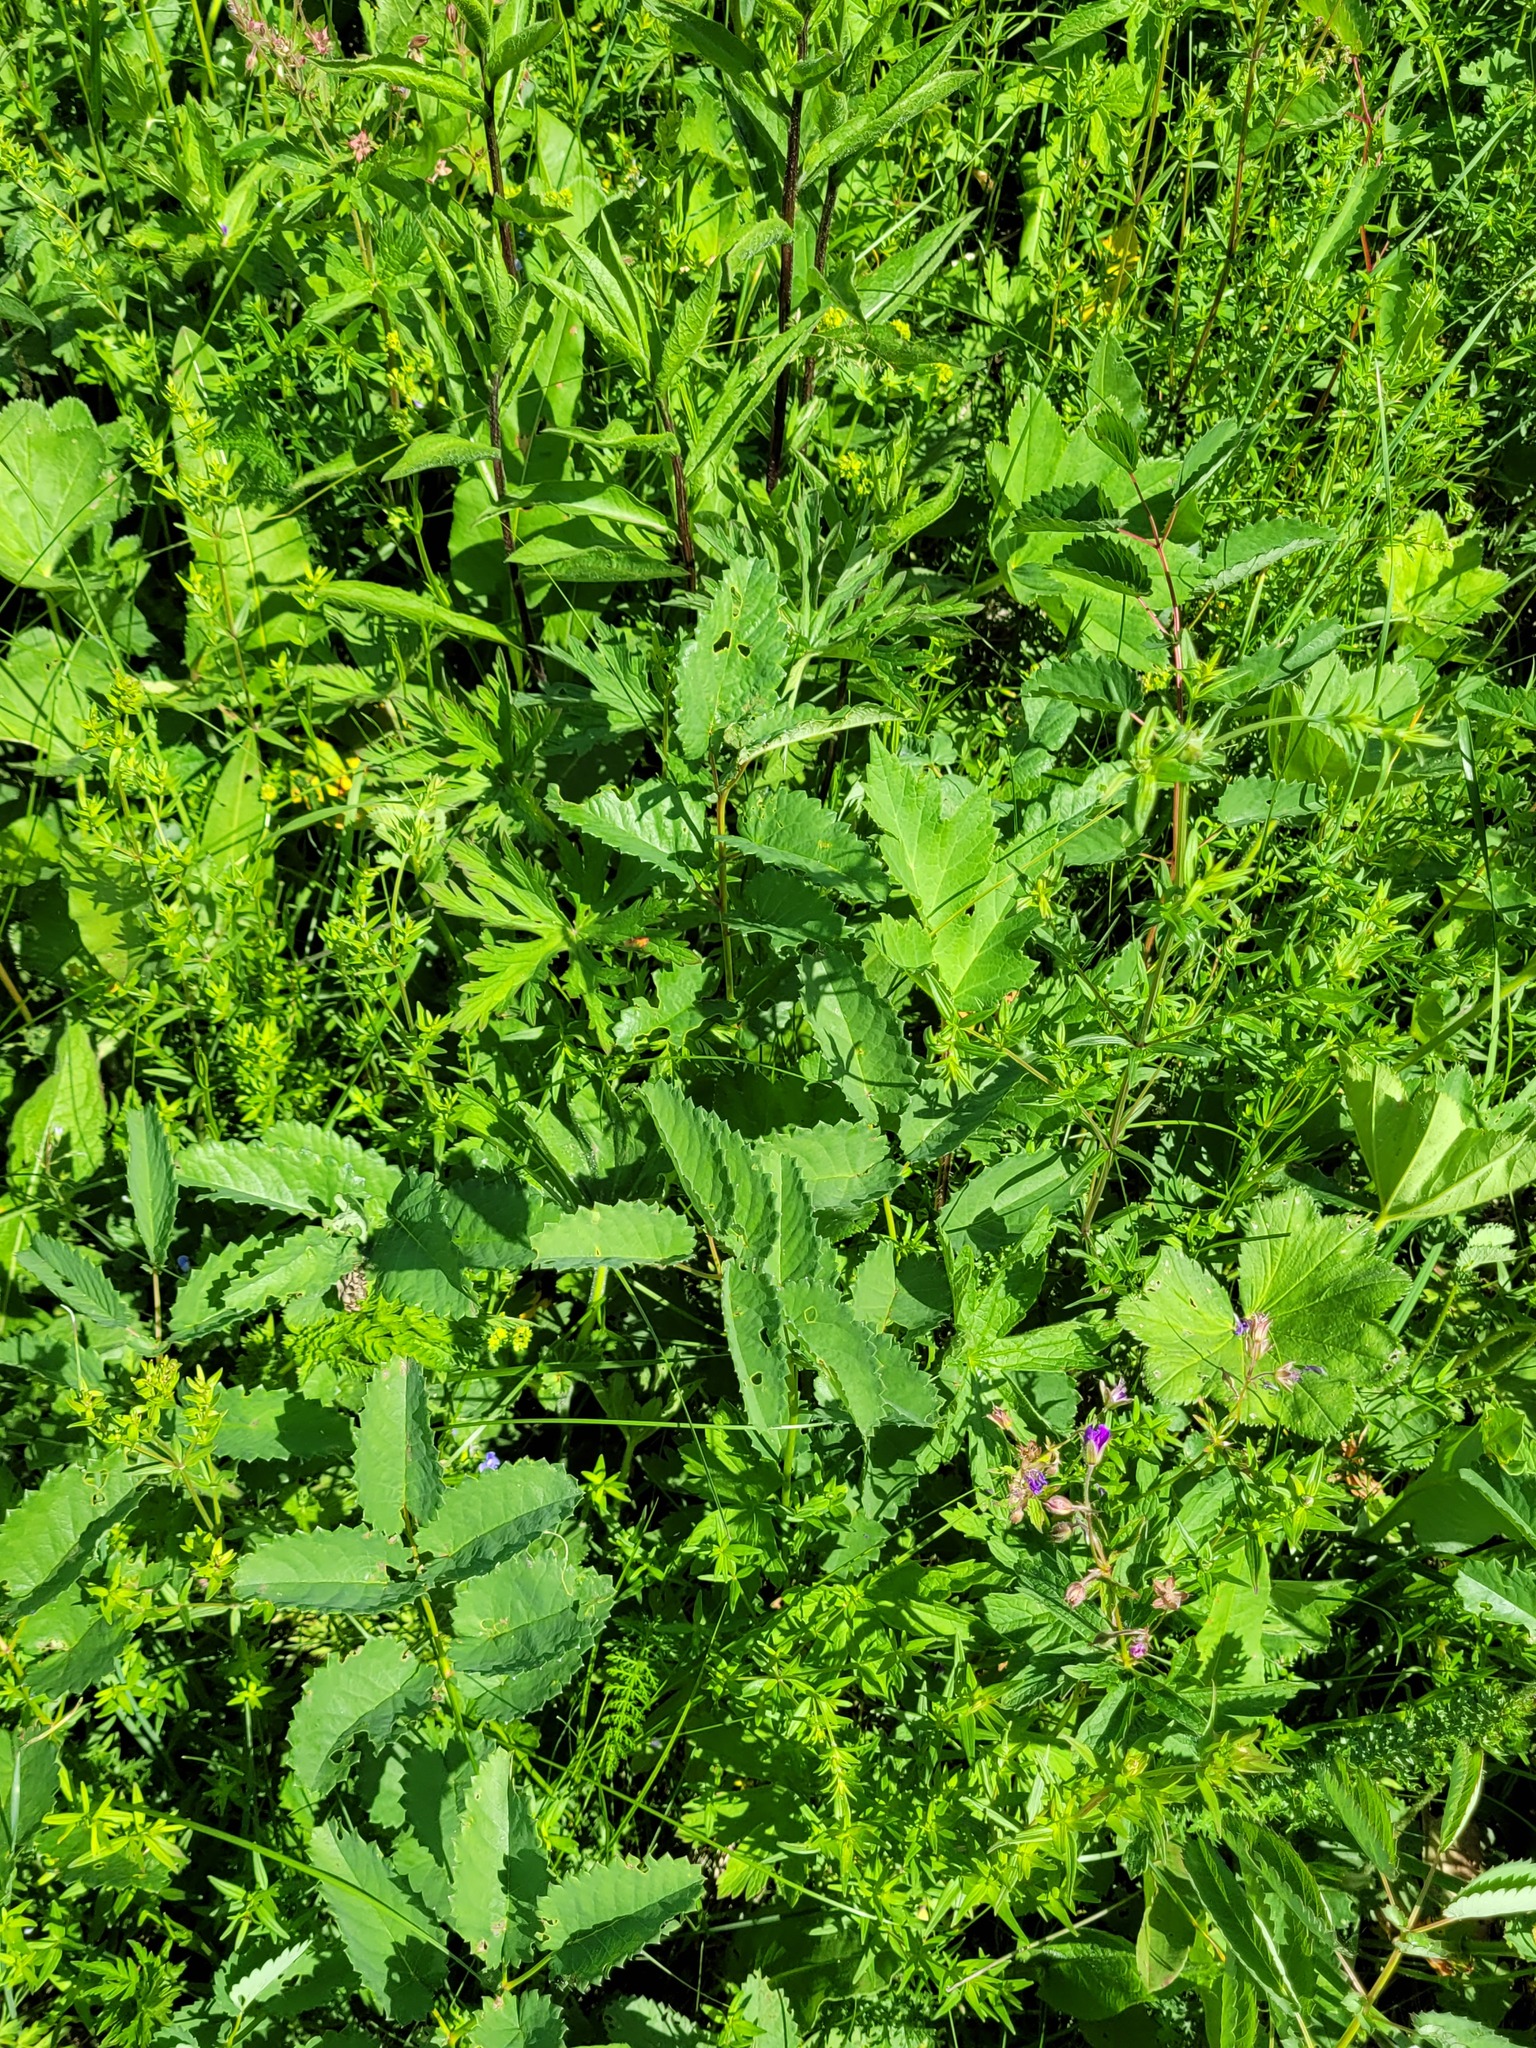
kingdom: Plantae
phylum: Tracheophyta
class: Magnoliopsida
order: Rosales
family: Rosaceae
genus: Sanguisorba
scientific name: Sanguisorba officinalis
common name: Great burnet
